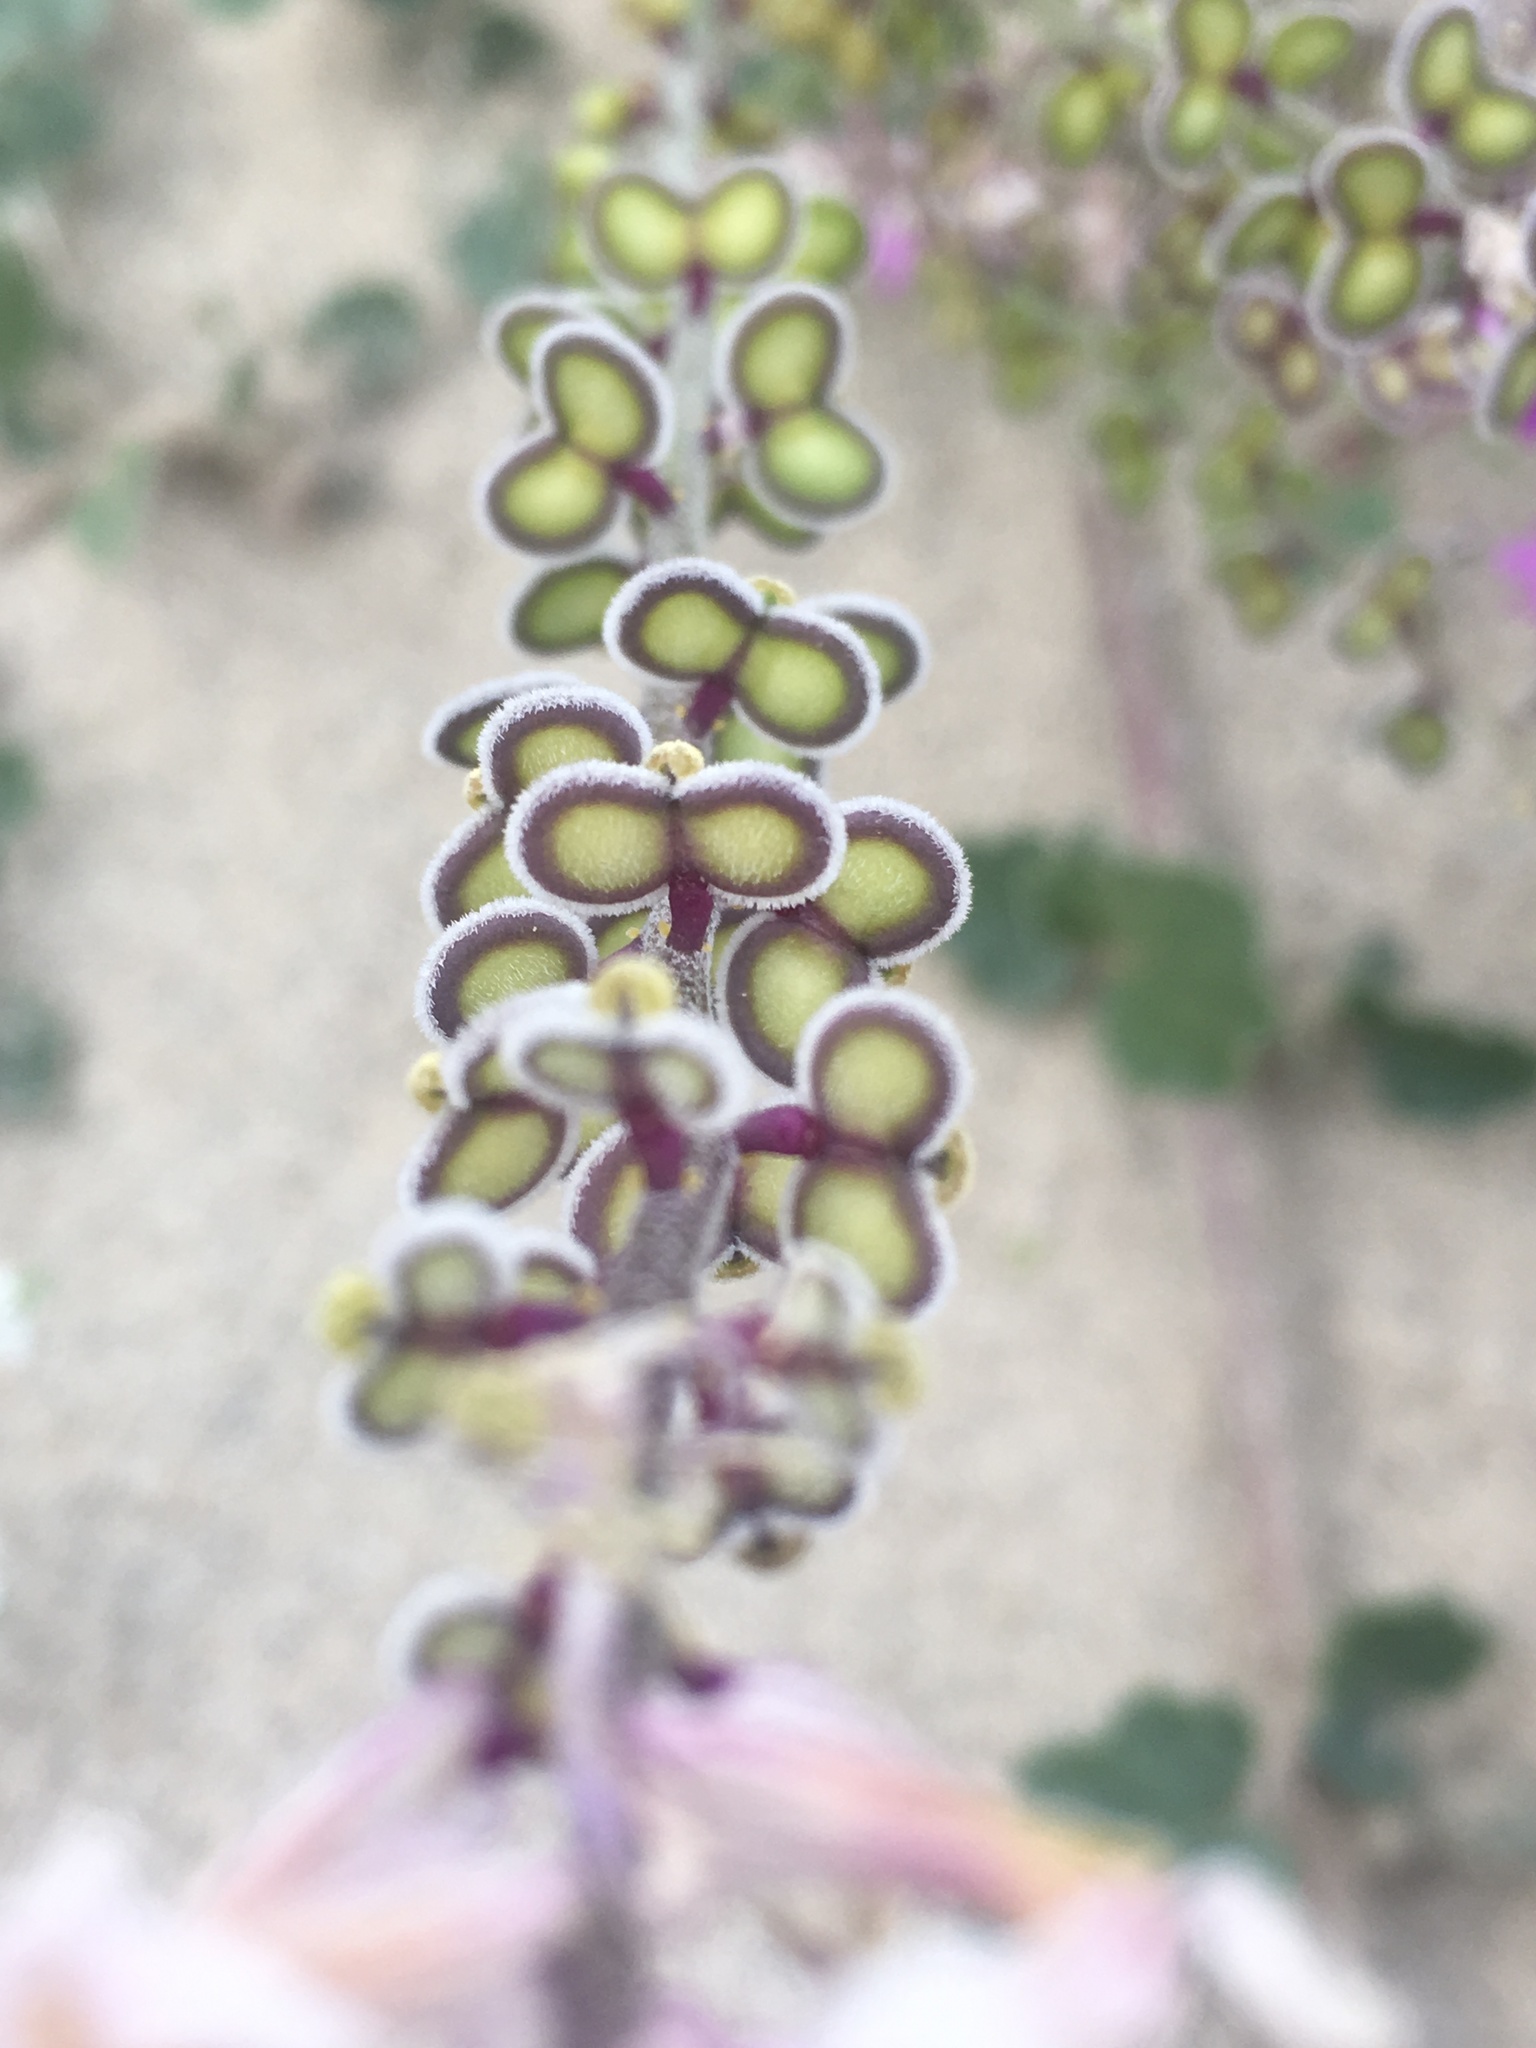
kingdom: Plantae
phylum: Tracheophyta
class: Magnoliopsida
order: Brassicales
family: Brassicaceae
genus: Dithyrea
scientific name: Dithyrea californica
